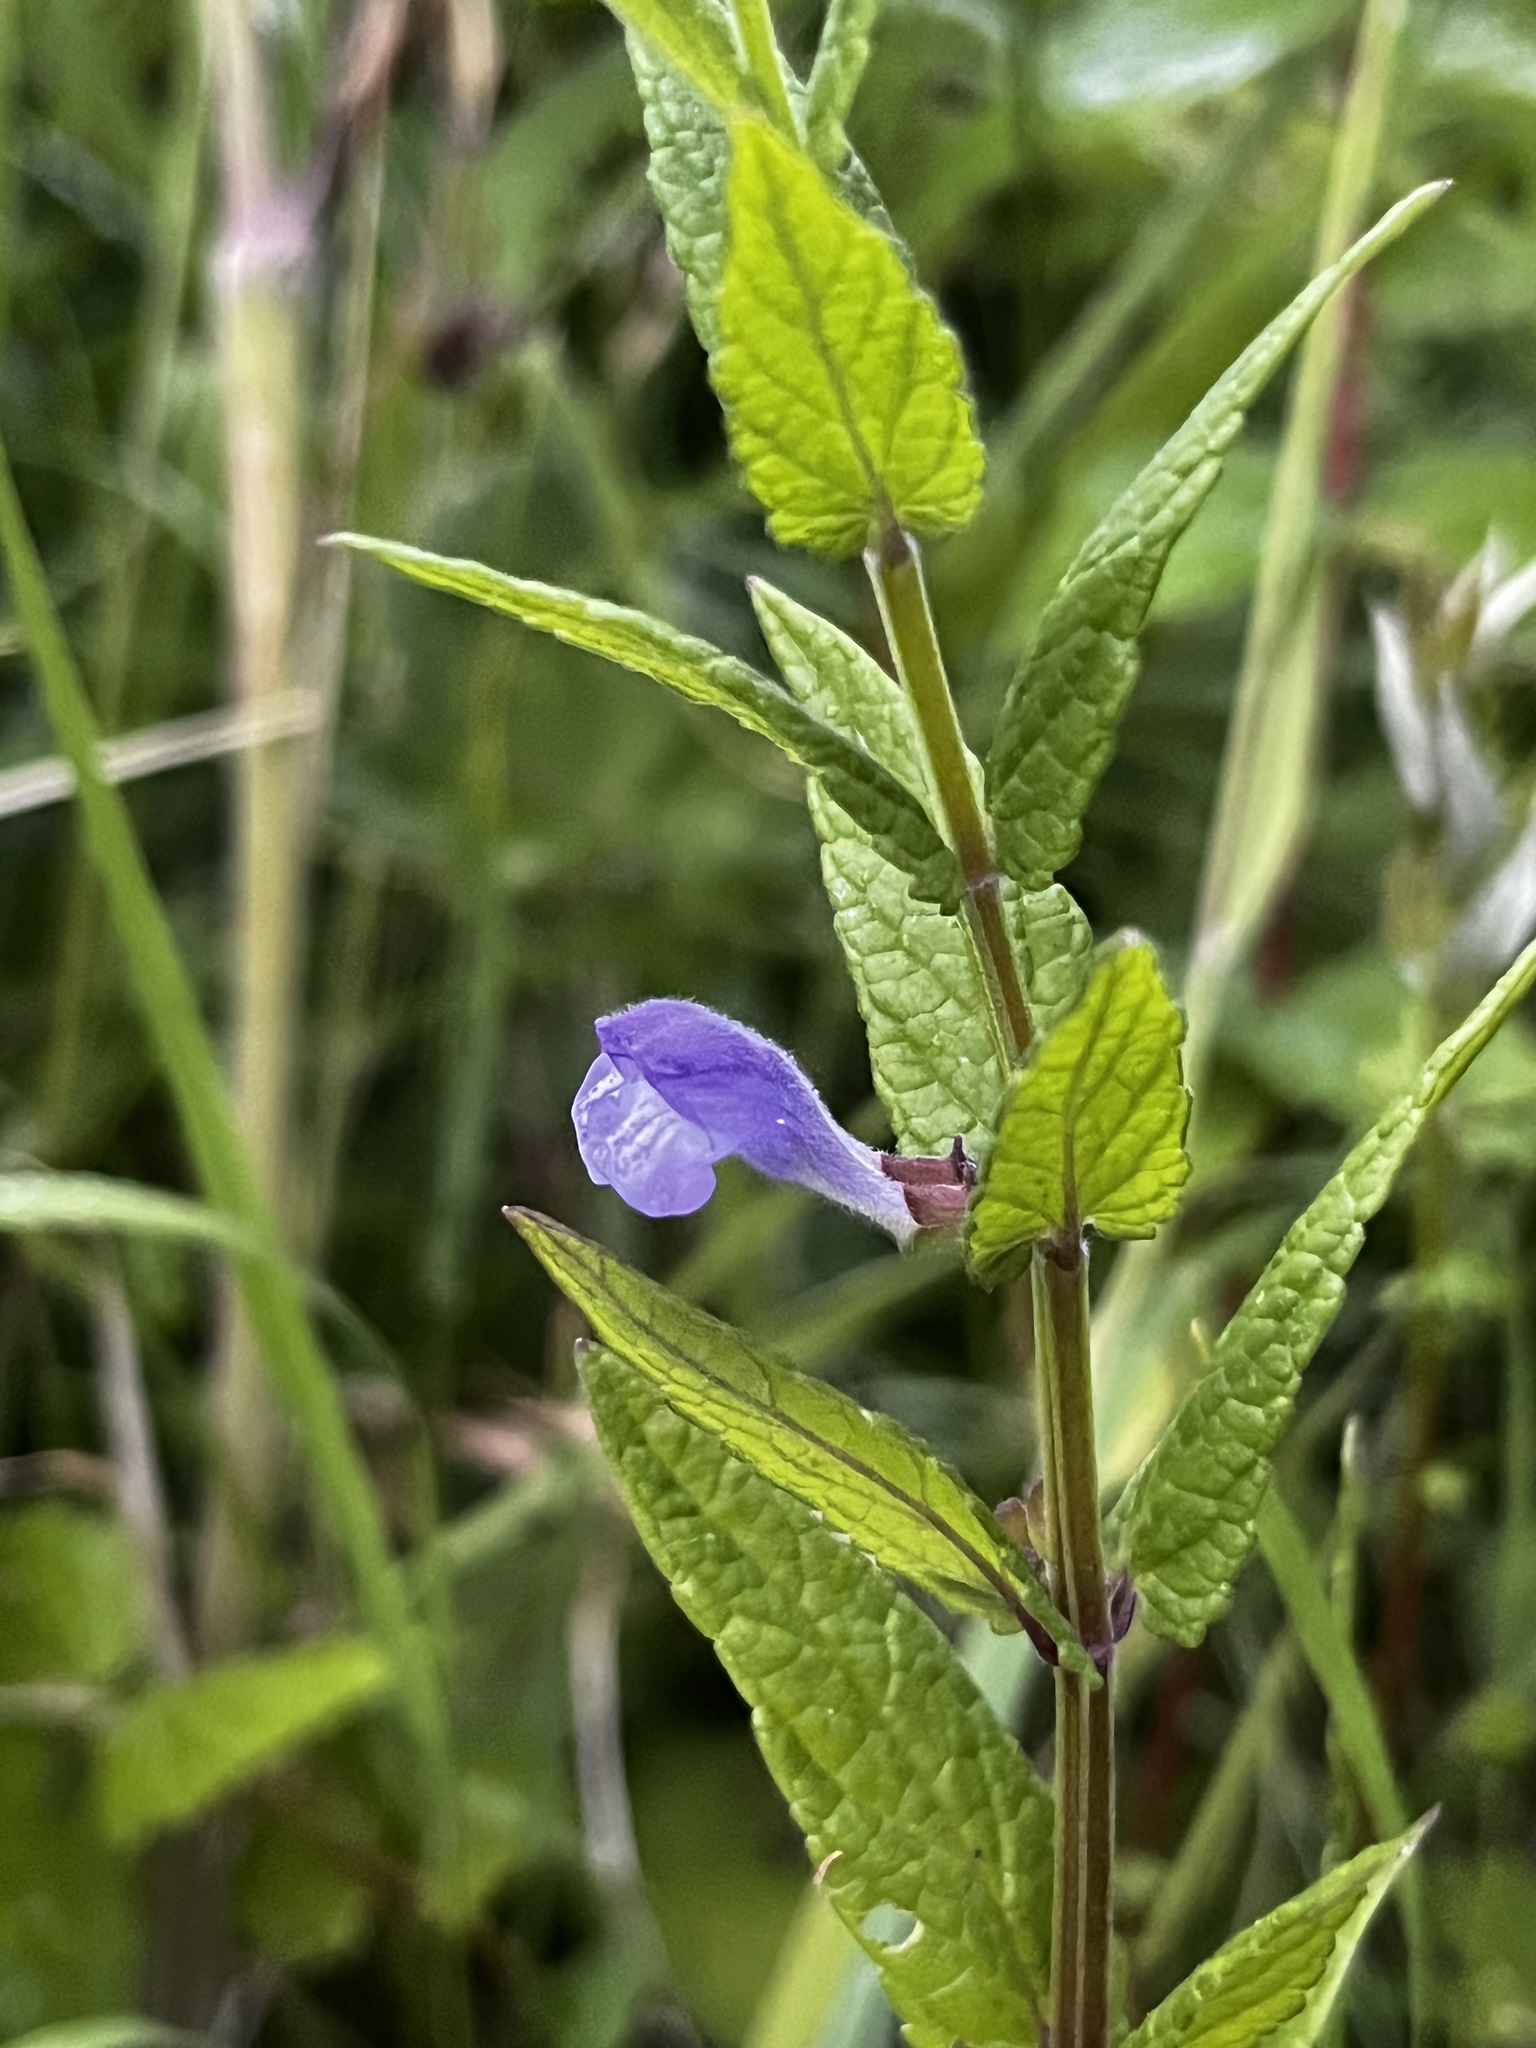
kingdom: Plantae
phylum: Tracheophyta
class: Magnoliopsida
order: Lamiales
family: Lamiaceae
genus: Scutellaria
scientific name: Scutellaria galericulata
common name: Skullcap
